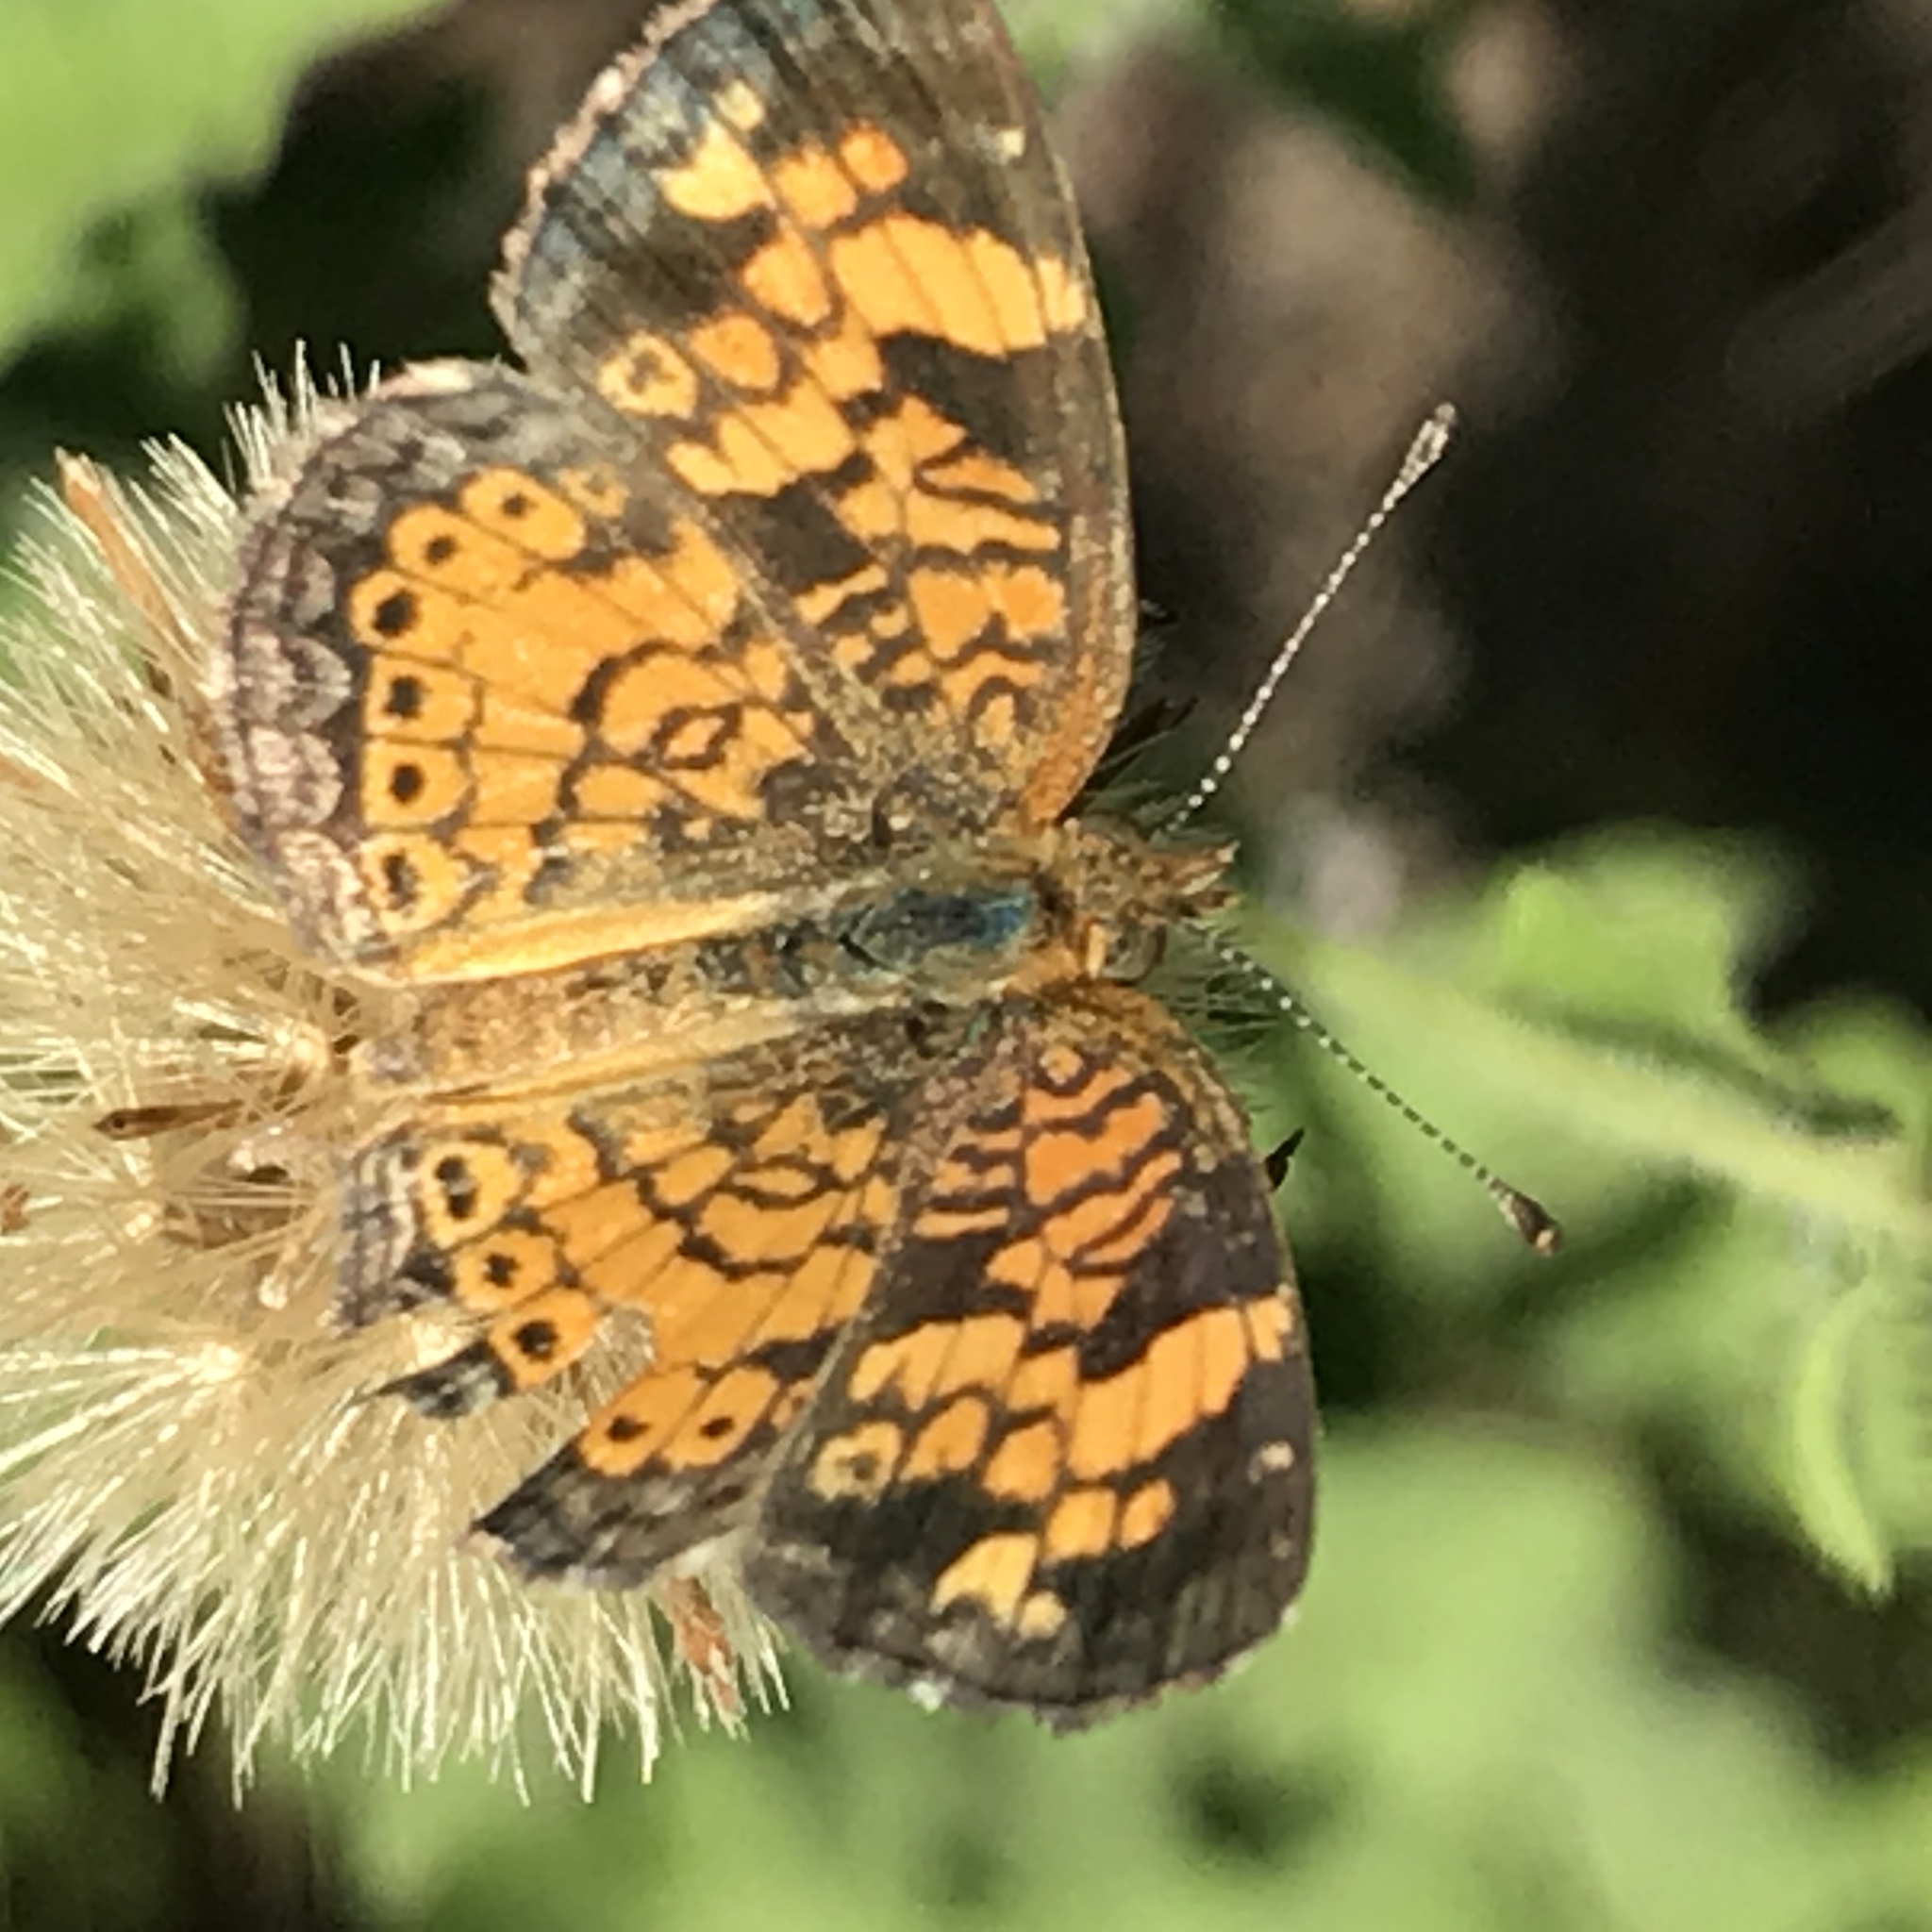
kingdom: Animalia
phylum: Arthropoda
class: Insecta
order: Lepidoptera
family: Nymphalidae
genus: Phyciodes
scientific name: Phyciodes tharos
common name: Pearl crescent
